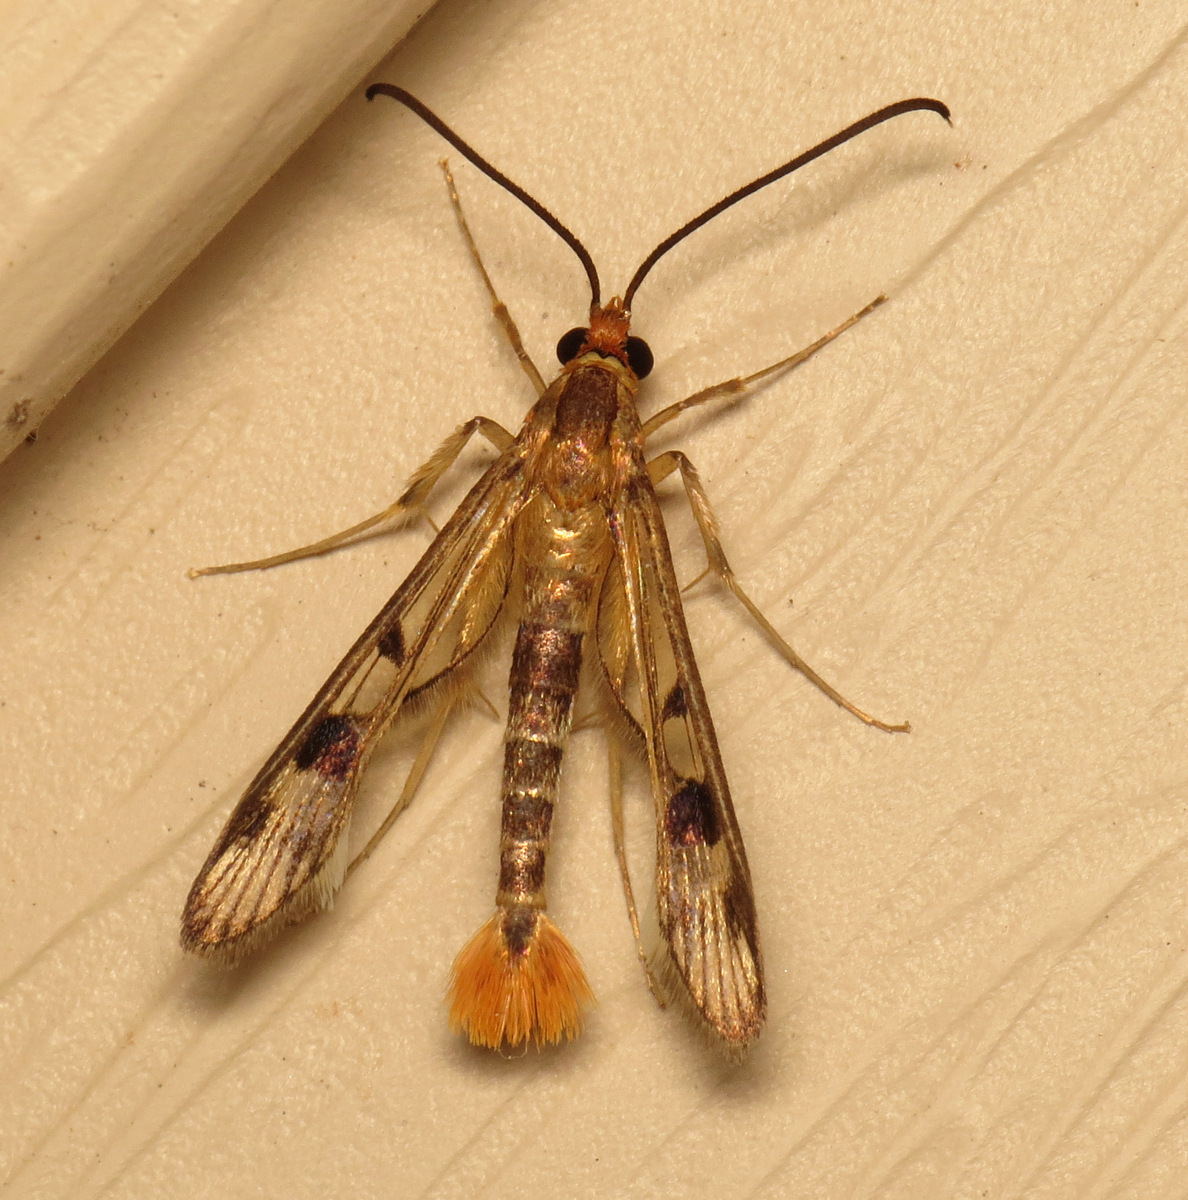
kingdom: Animalia
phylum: Arthropoda
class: Insecta
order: Lepidoptera
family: Sesiidae
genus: Synanthedon
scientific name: Synanthedon acerni
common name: Maple callus borer moth
